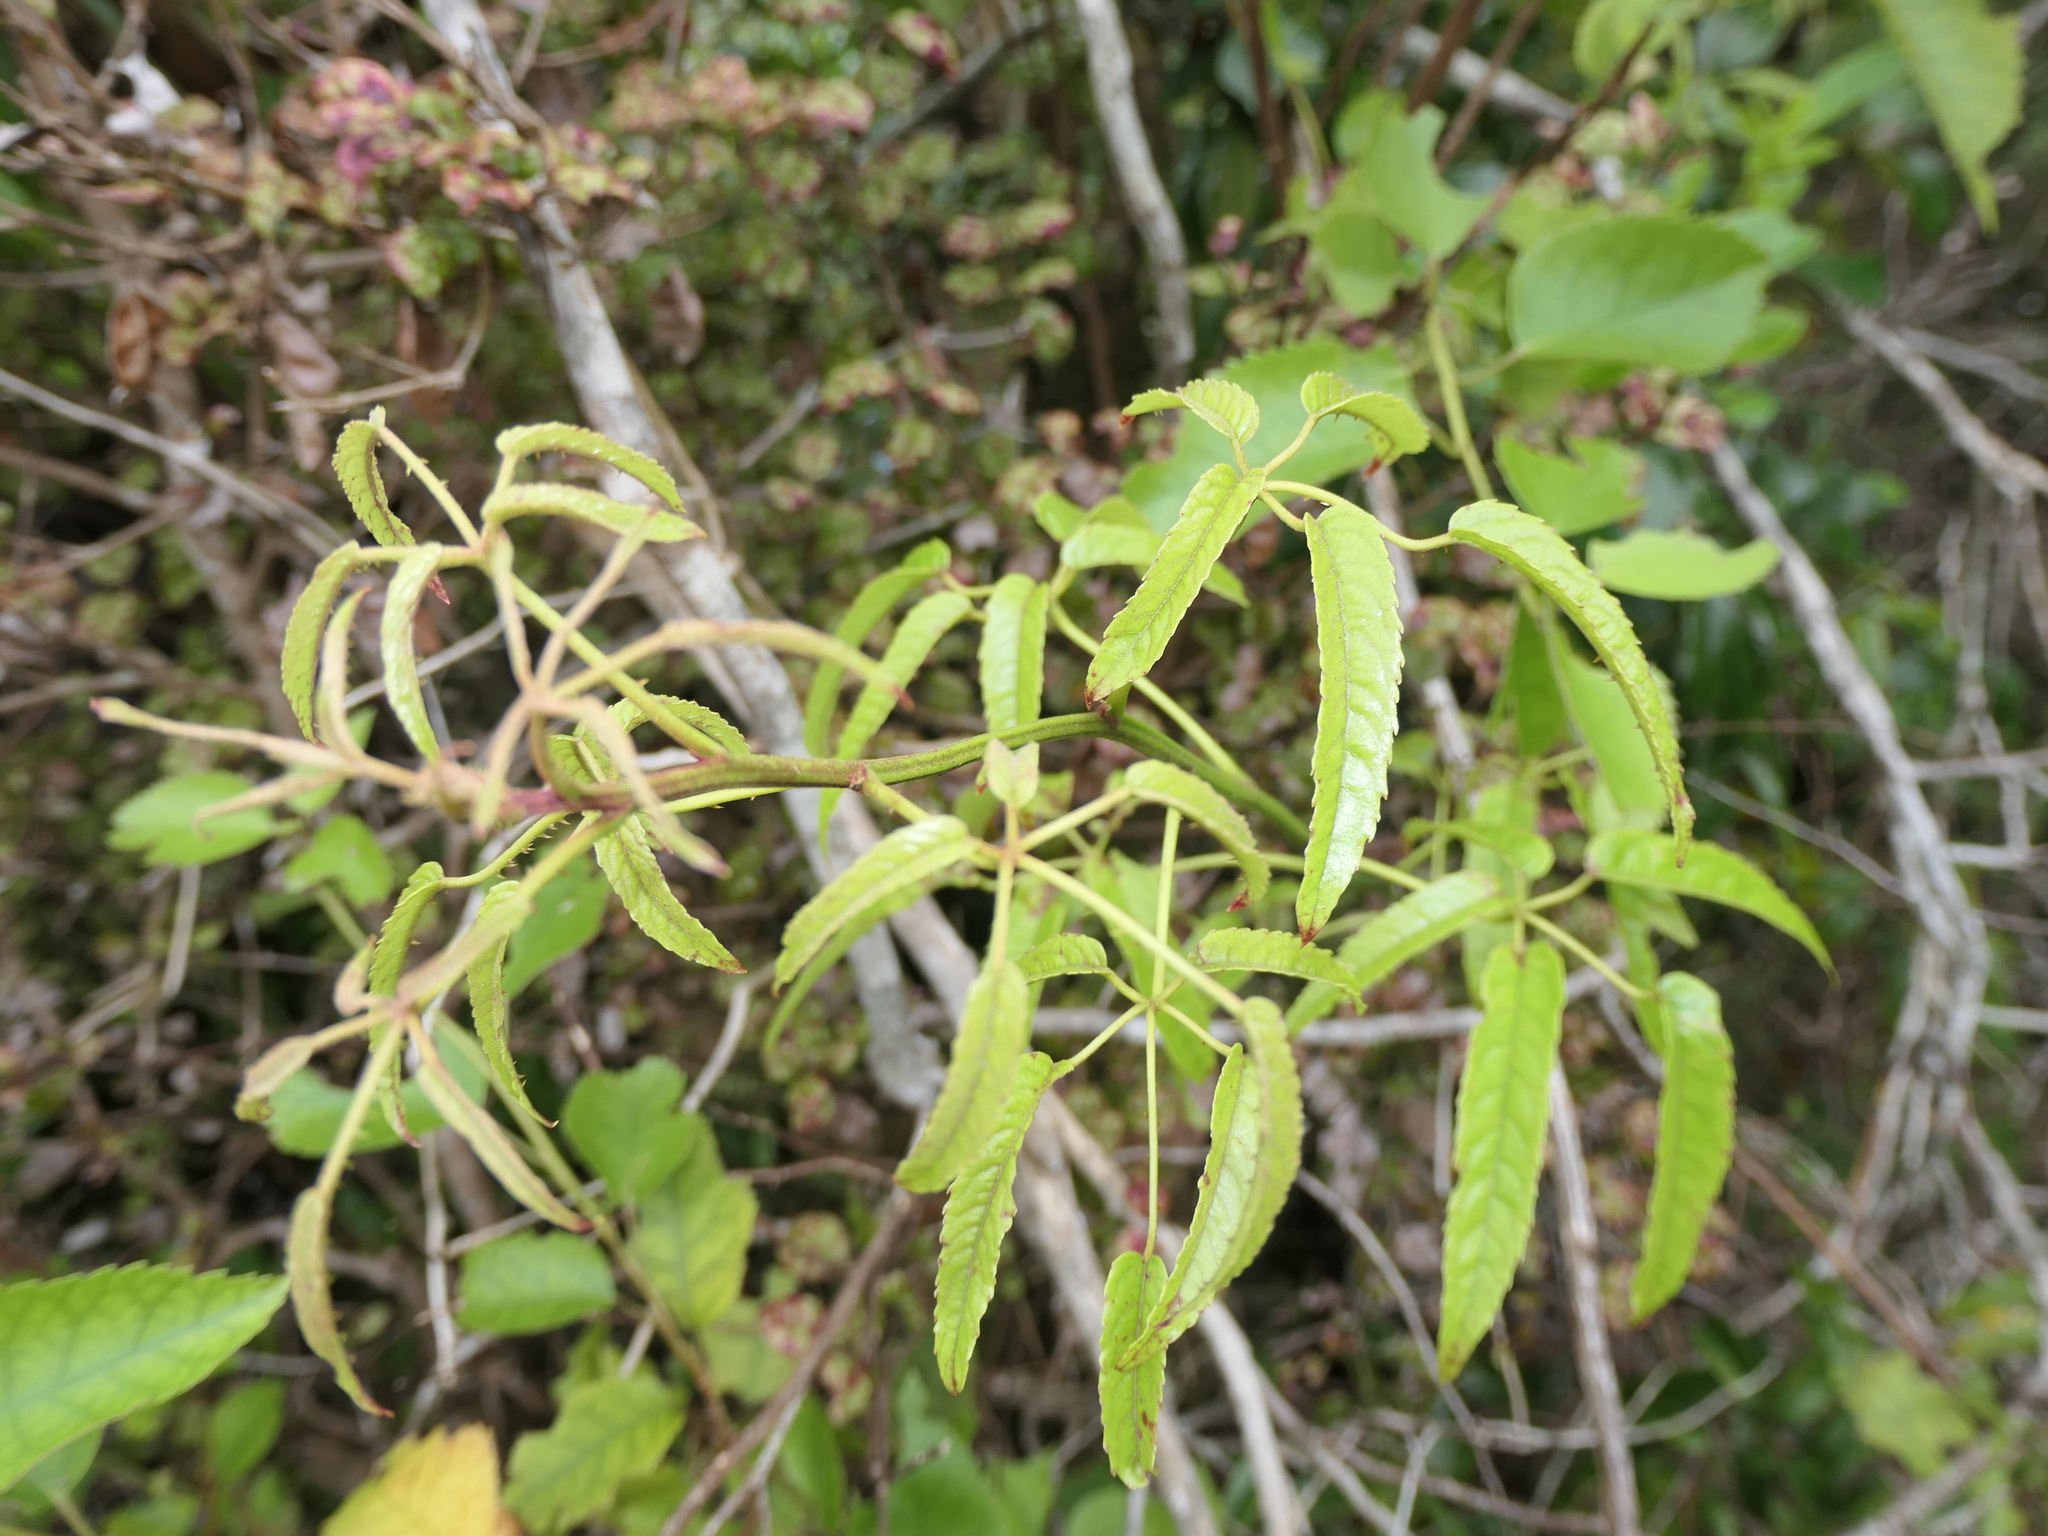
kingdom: Plantae
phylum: Tracheophyta
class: Magnoliopsida
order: Rosales
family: Rosaceae
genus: Rubus
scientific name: Rubus cissoides
